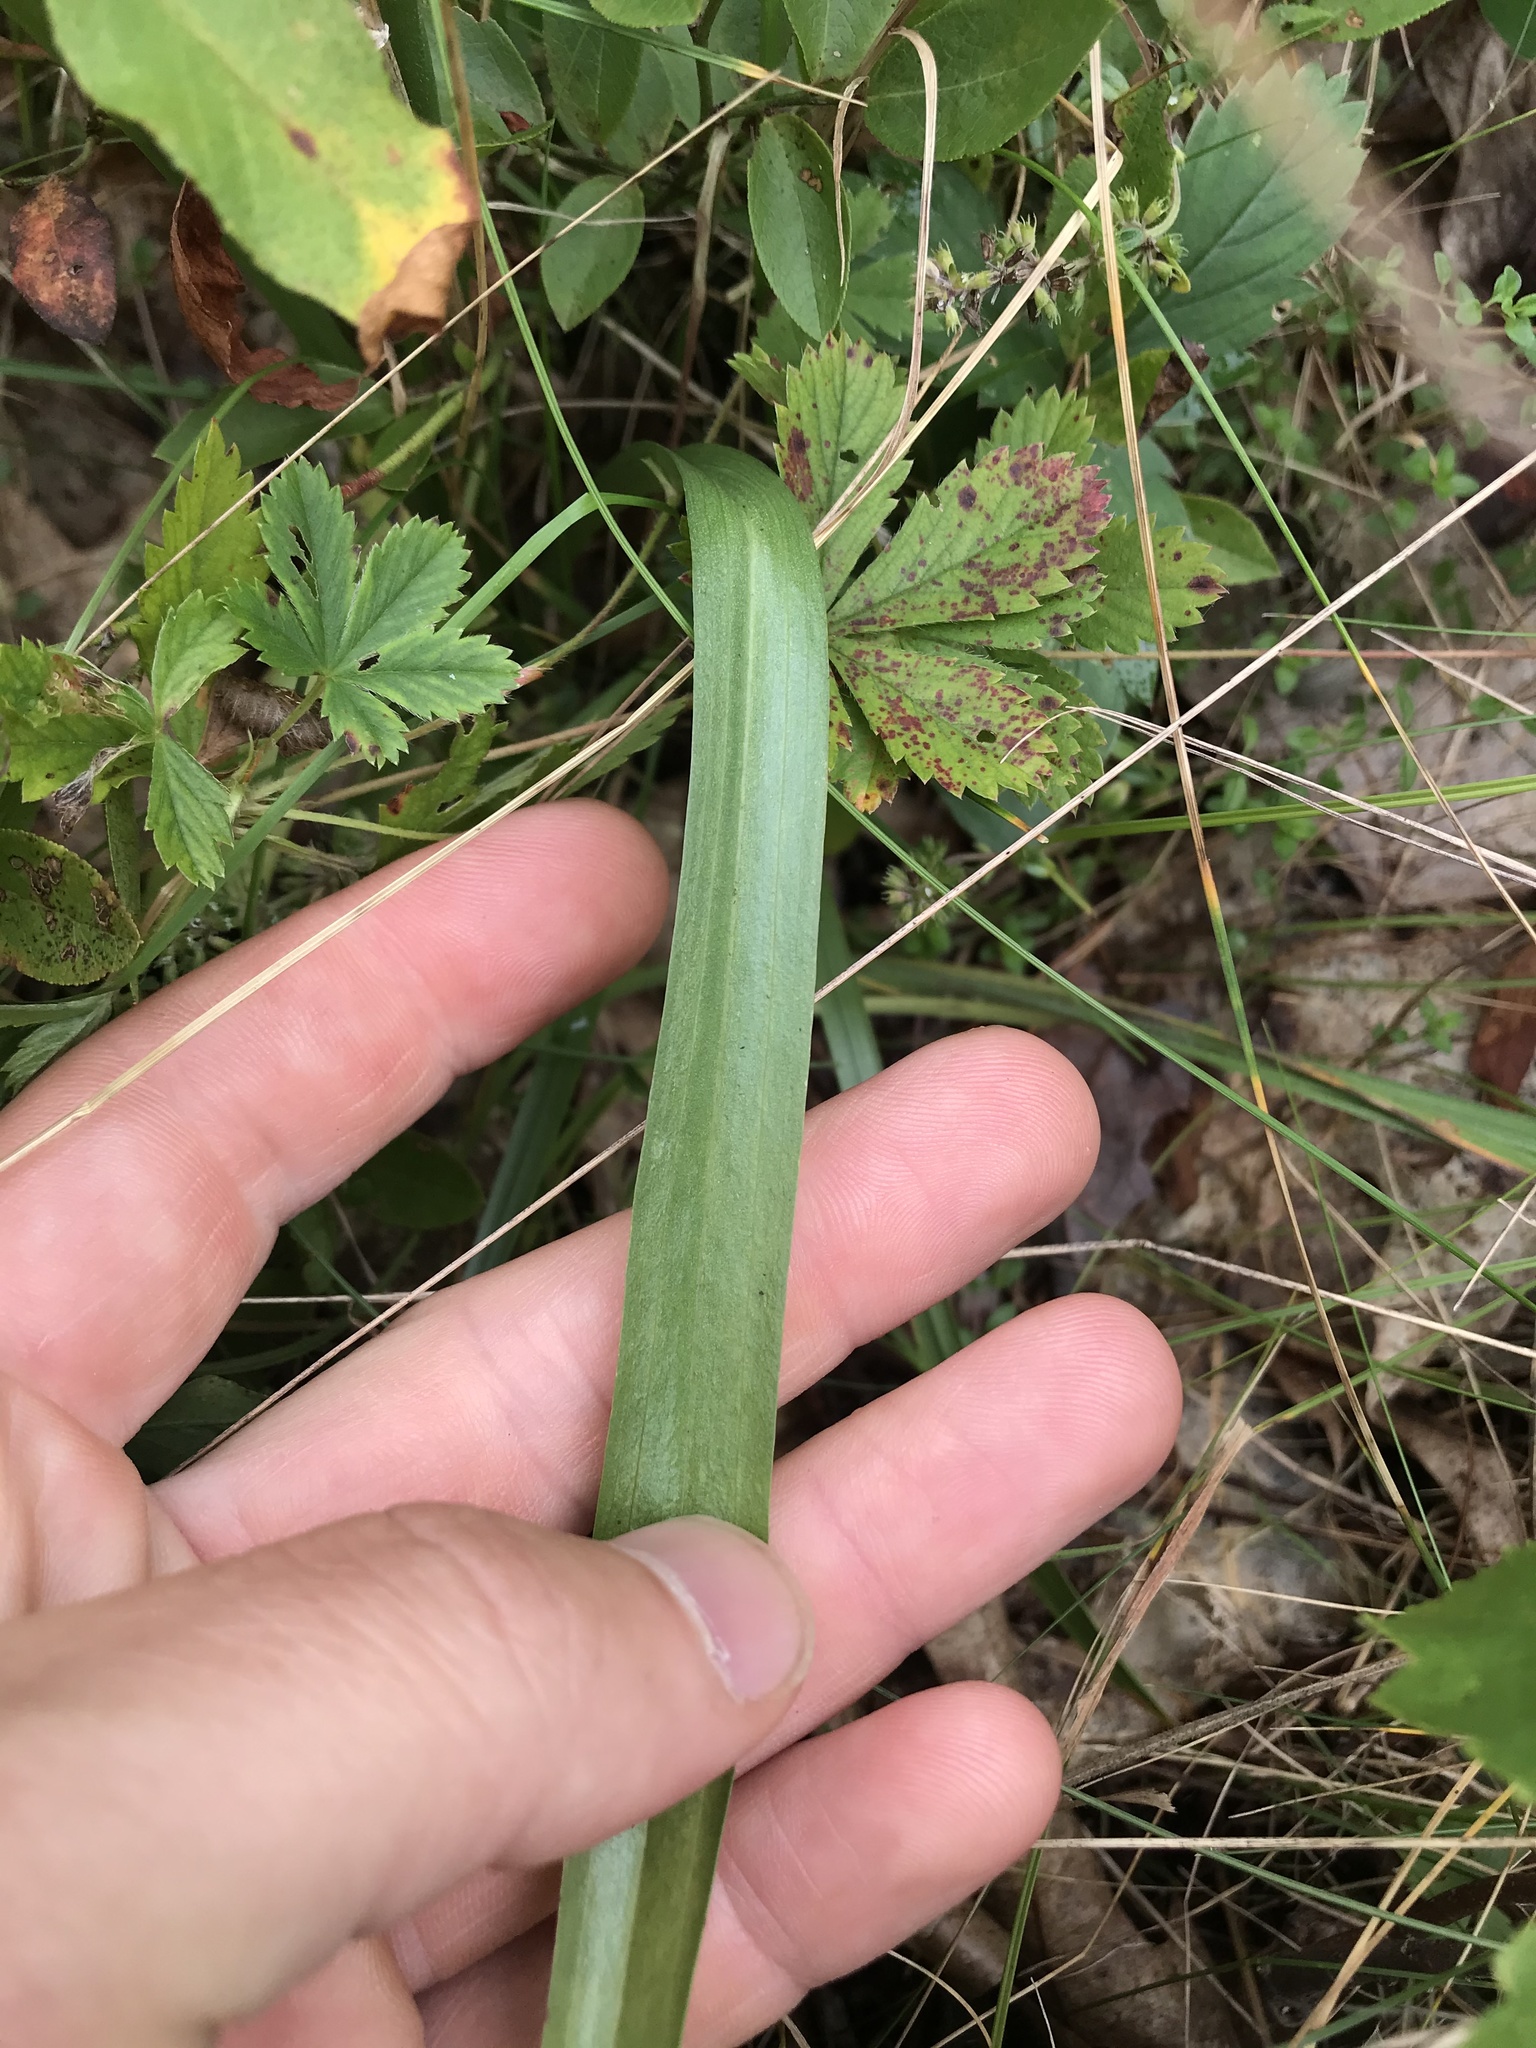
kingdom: Plantae
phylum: Tracheophyta
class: Liliopsida
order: Asparagales
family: Orchidaceae
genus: Spiranthes
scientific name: Spiranthes cernua
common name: Dropping ladies'-tresses
